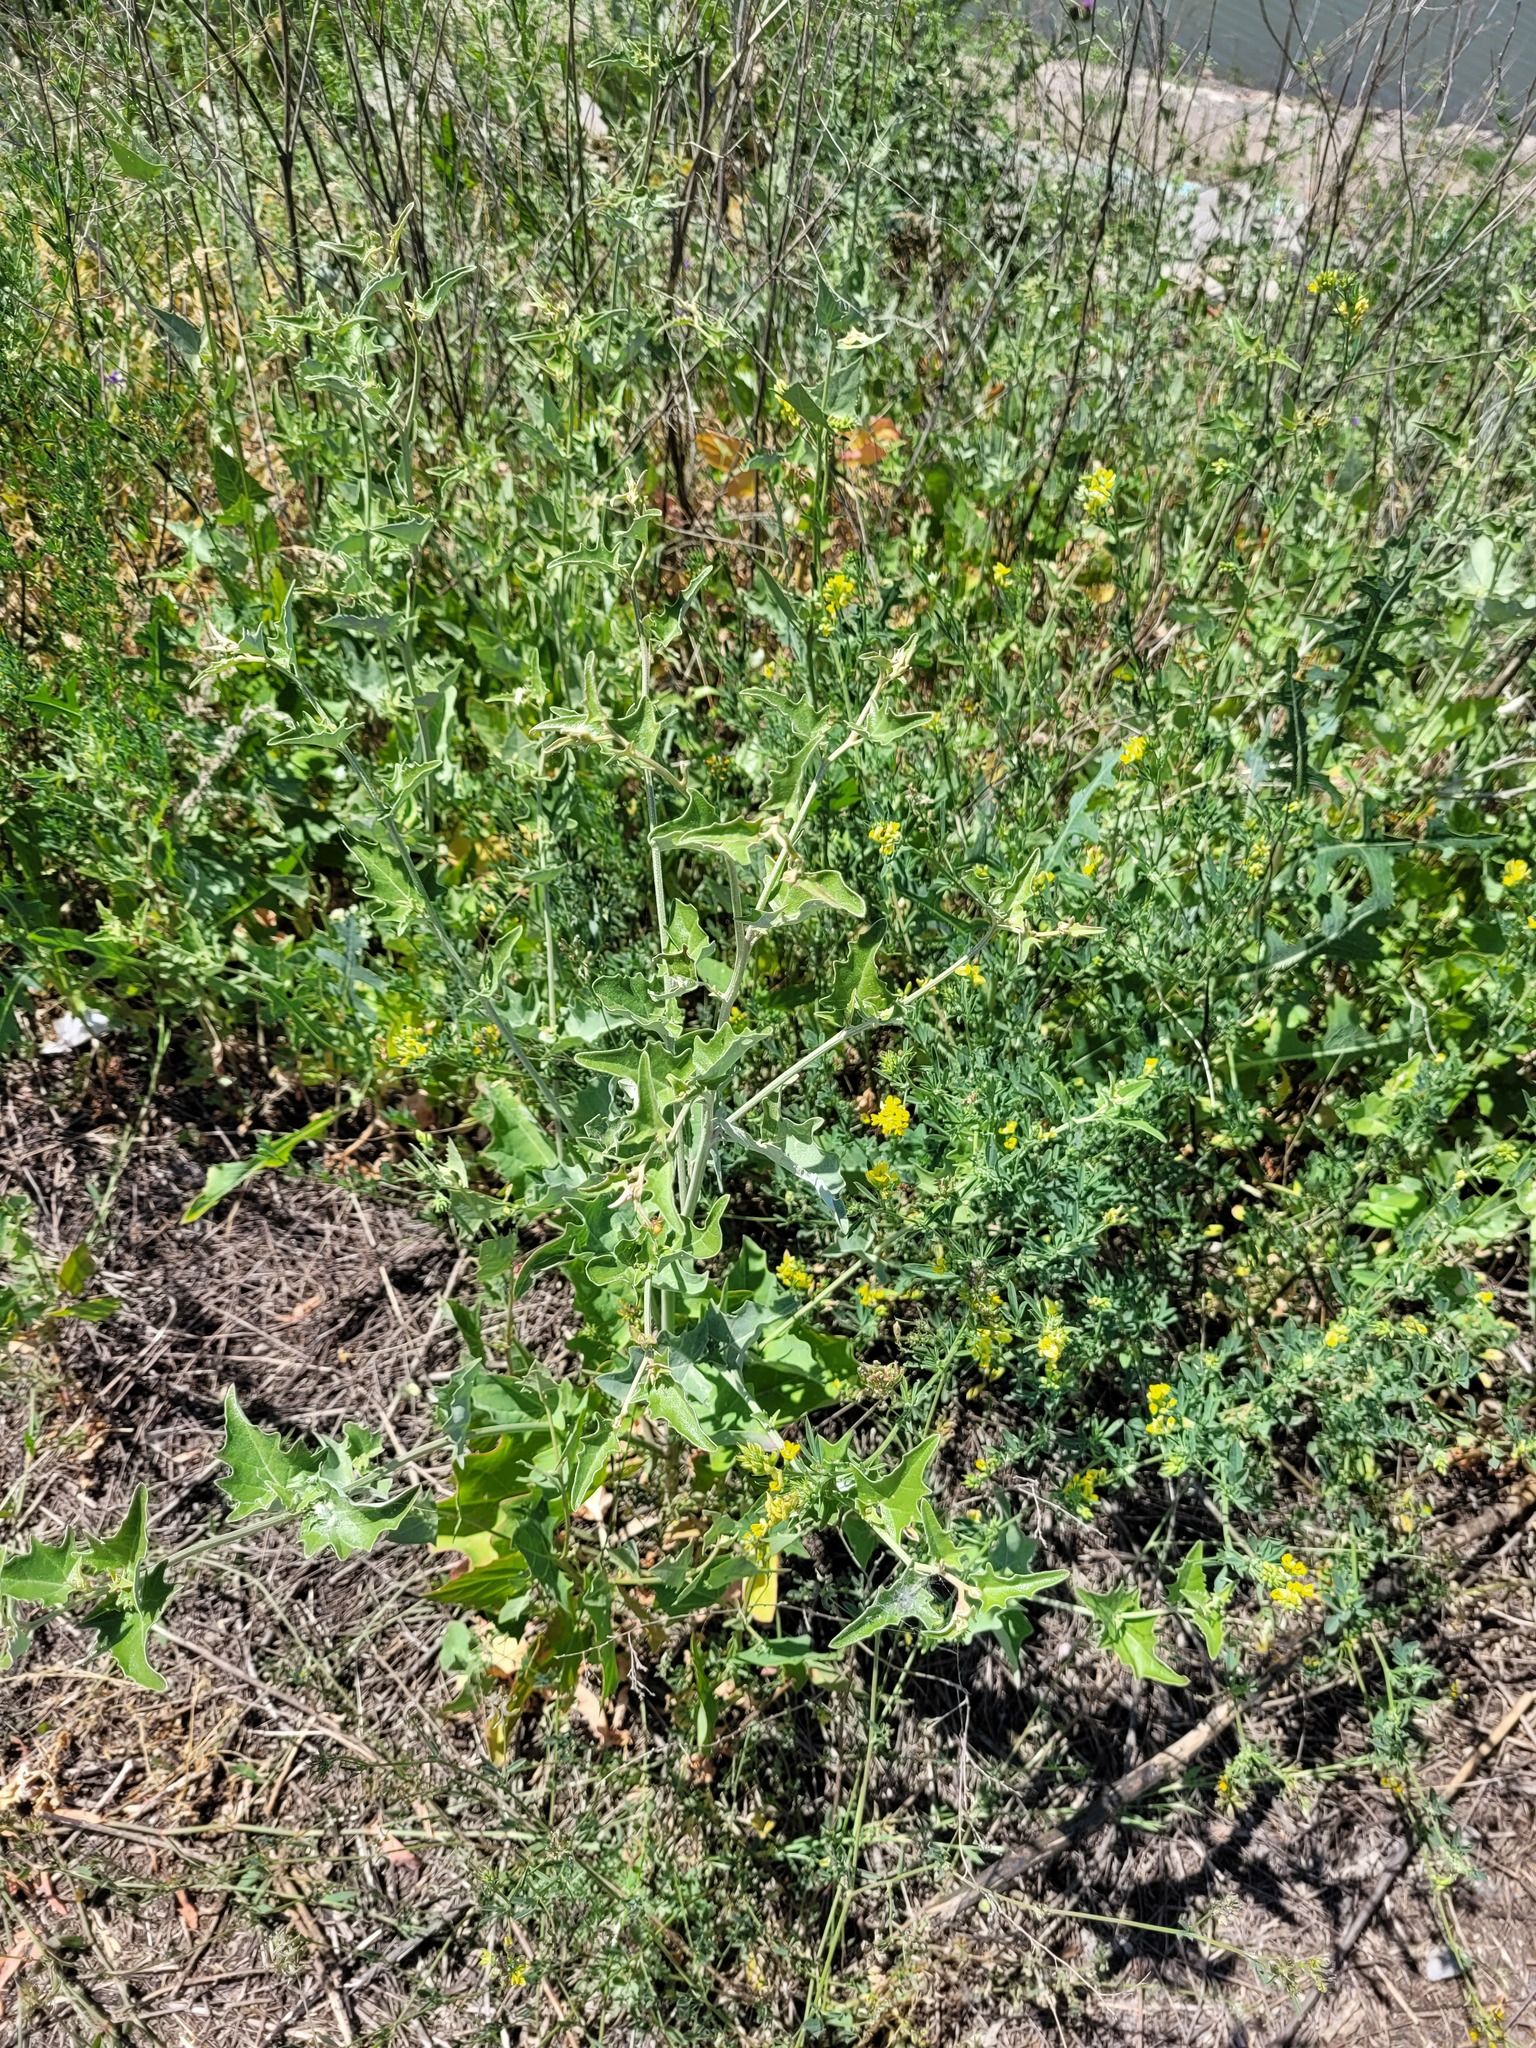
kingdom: Plantae
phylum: Tracheophyta
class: Magnoliopsida
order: Caryophyllales
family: Amaranthaceae
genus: Atriplex
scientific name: Atriplex aucheri
